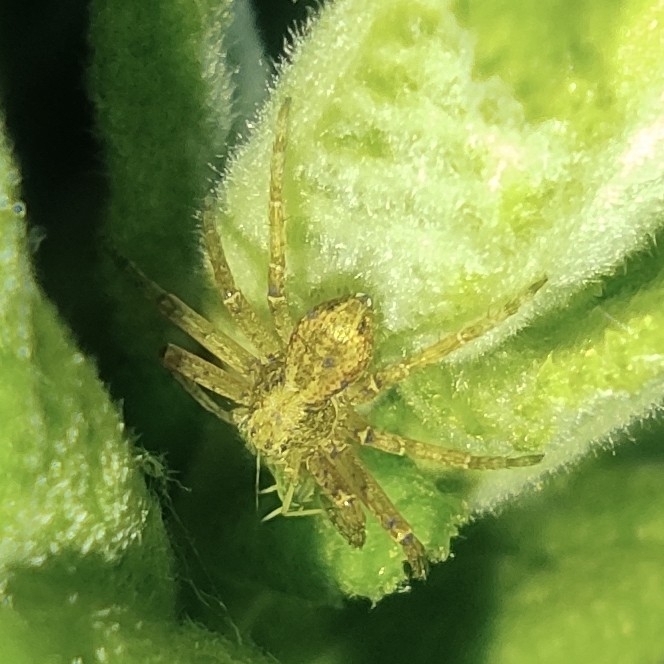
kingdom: Animalia
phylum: Arthropoda
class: Arachnida
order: Araneae
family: Philodromidae
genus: Philodromus
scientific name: Philodromus
